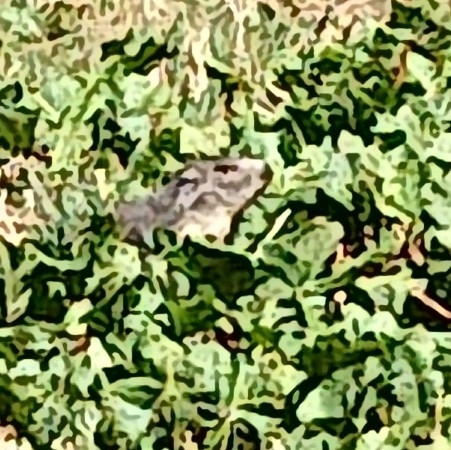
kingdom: Animalia
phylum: Chordata
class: Mammalia
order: Rodentia
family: Sciuridae
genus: Marmota
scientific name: Marmota marmota
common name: Alpine marmot
